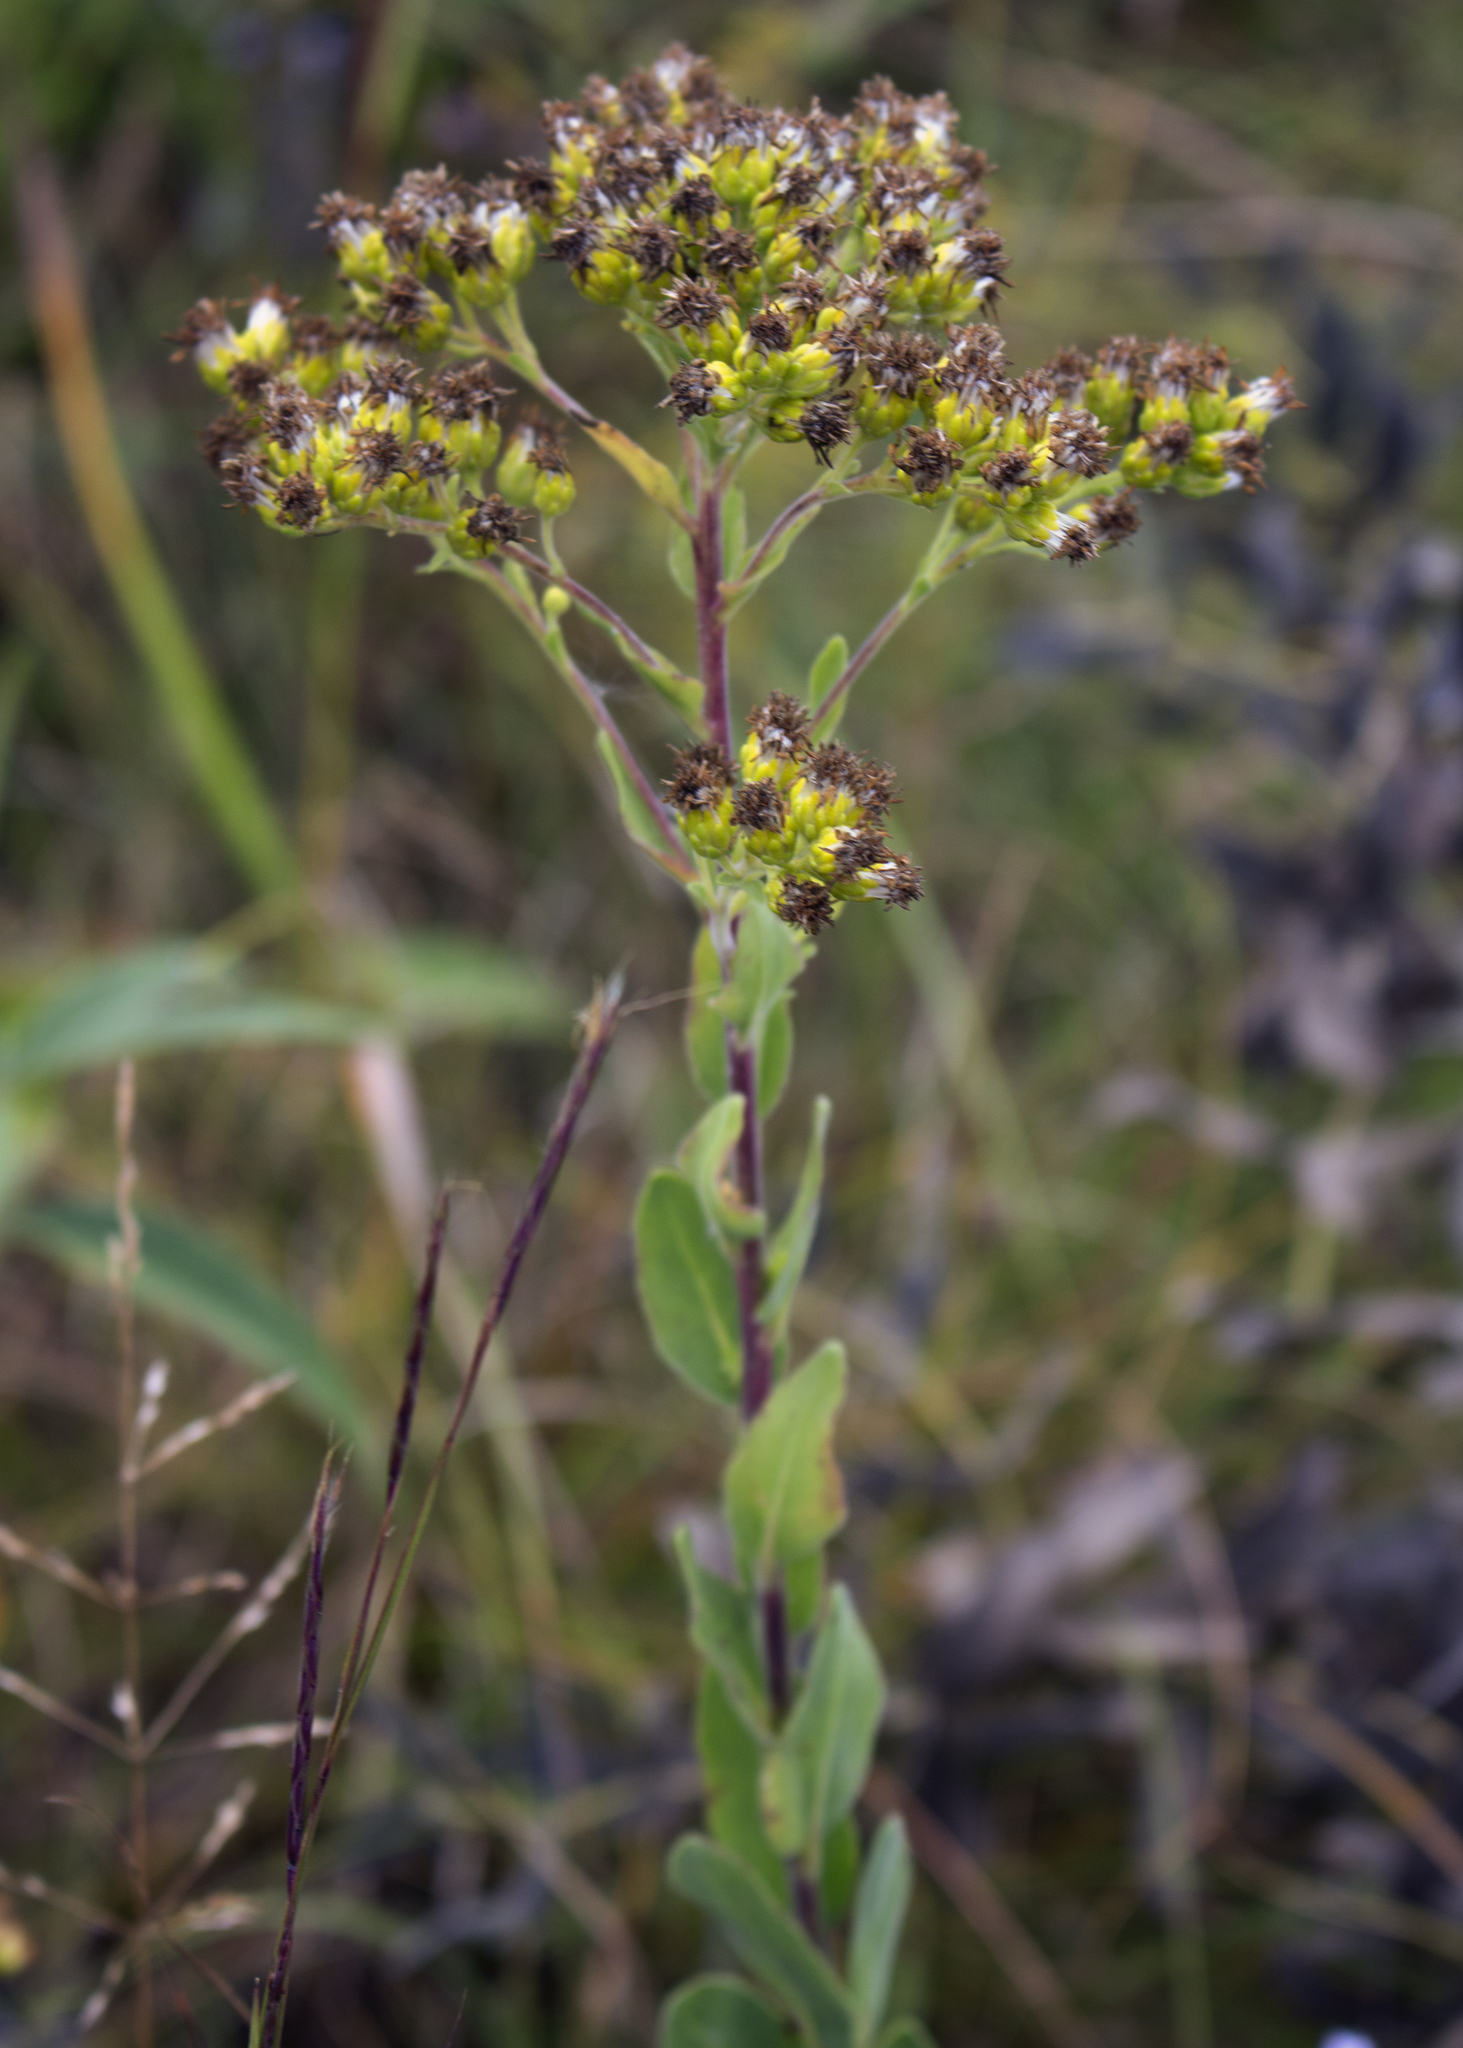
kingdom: Plantae
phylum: Tracheophyta
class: Magnoliopsida
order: Asterales
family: Asteraceae
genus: Solidago
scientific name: Solidago rigida
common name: Rigid goldenrod
